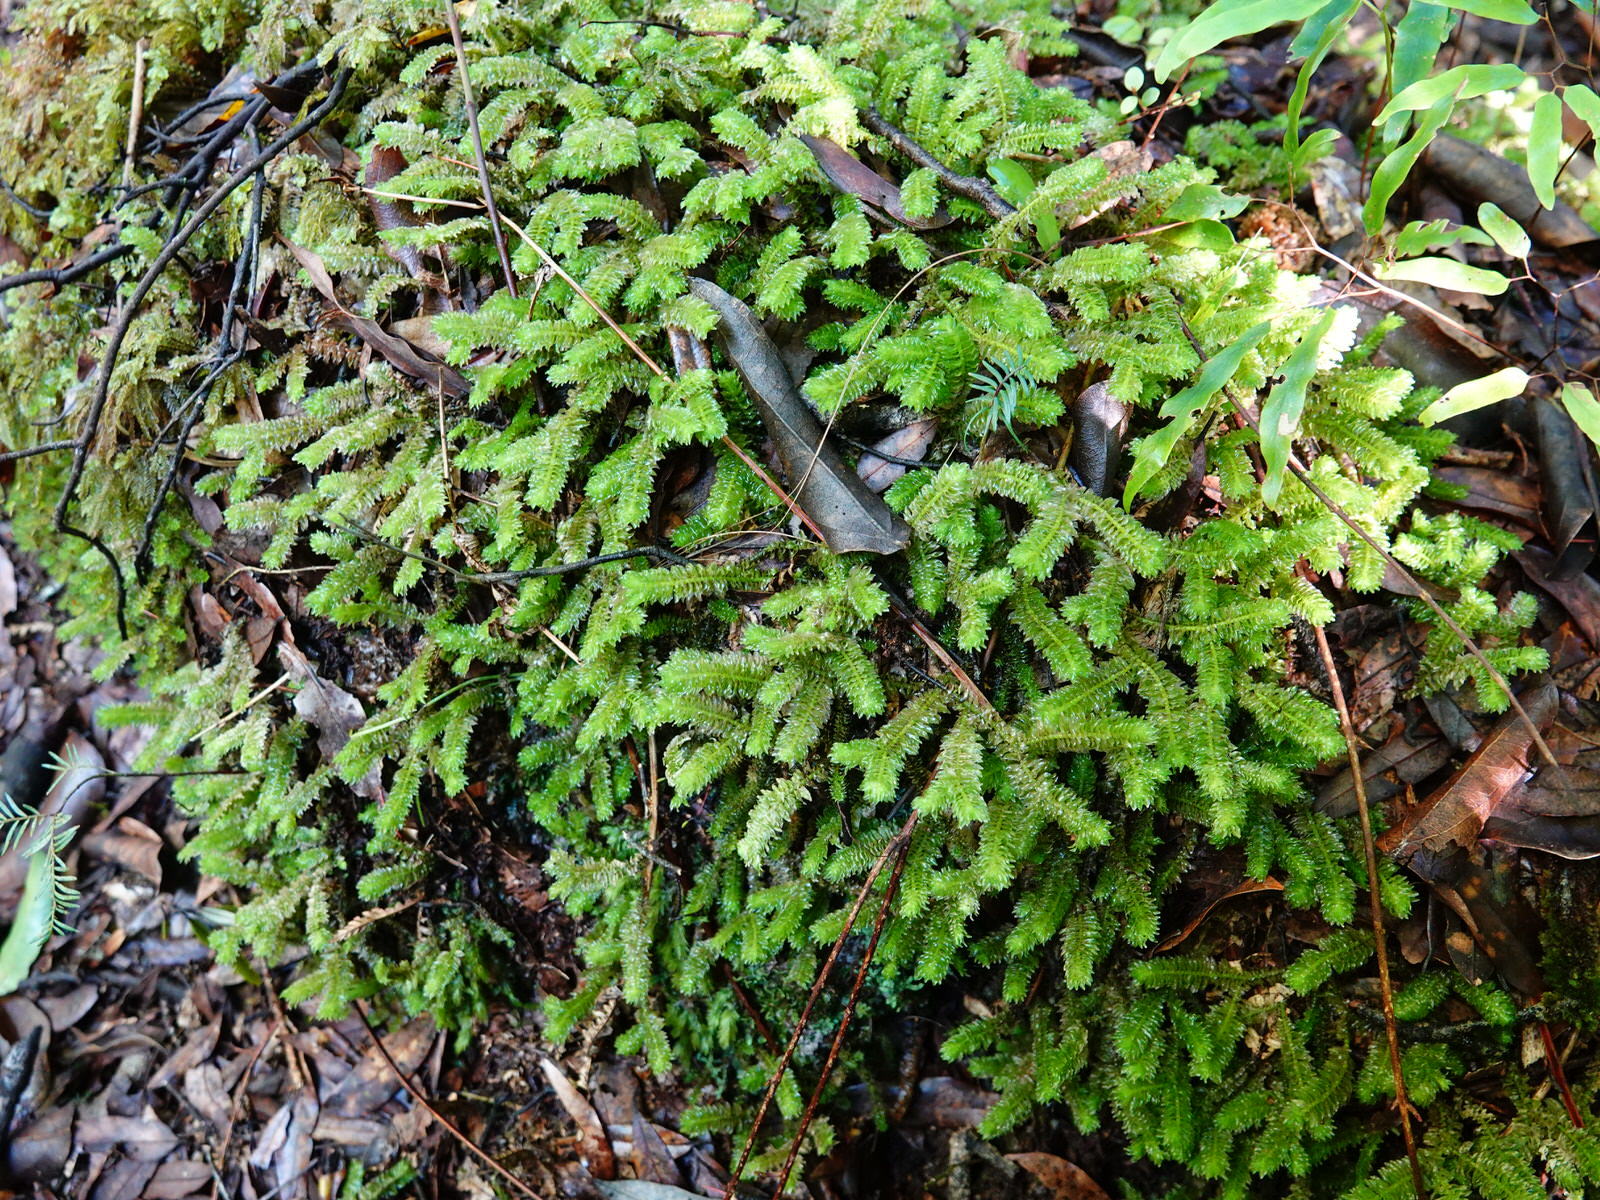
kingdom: Plantae
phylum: Marchantiophyta
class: Jungermanniopsida
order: Jungermanniales
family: Schistochilaceae
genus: Schistochila
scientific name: Schistochila nobilis
